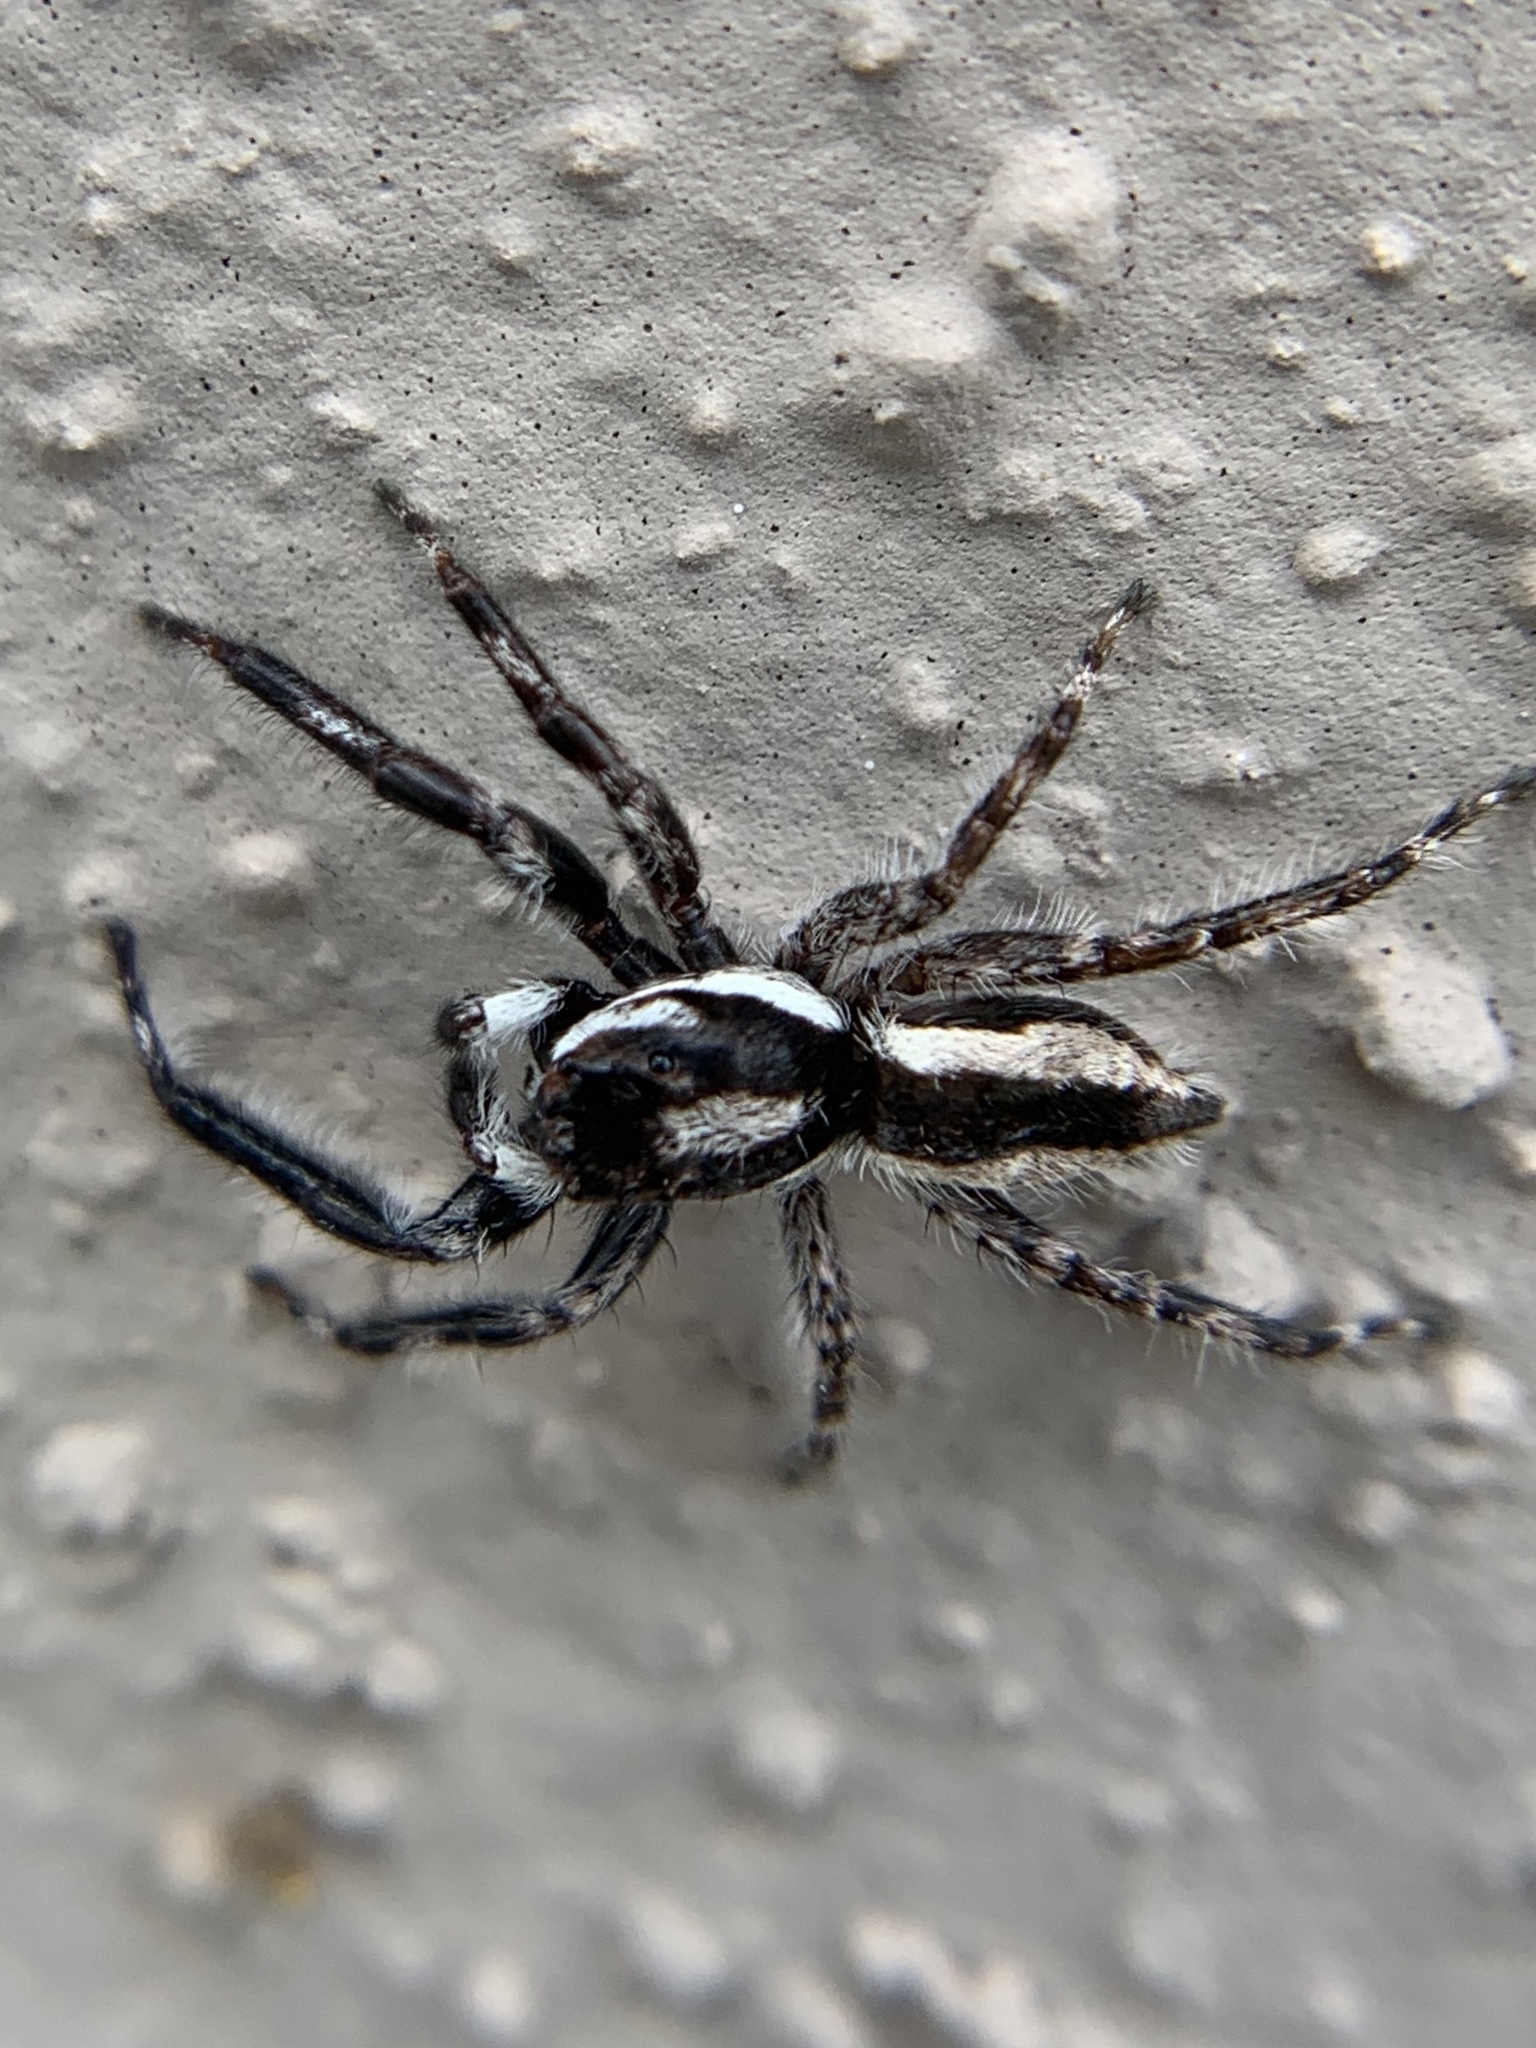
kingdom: Animalia
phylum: Arthropoda
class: Arachnida
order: Araneae
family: Salticidae
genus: Menemerus
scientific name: Menemerus bivittatus
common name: Gray wall jumper
